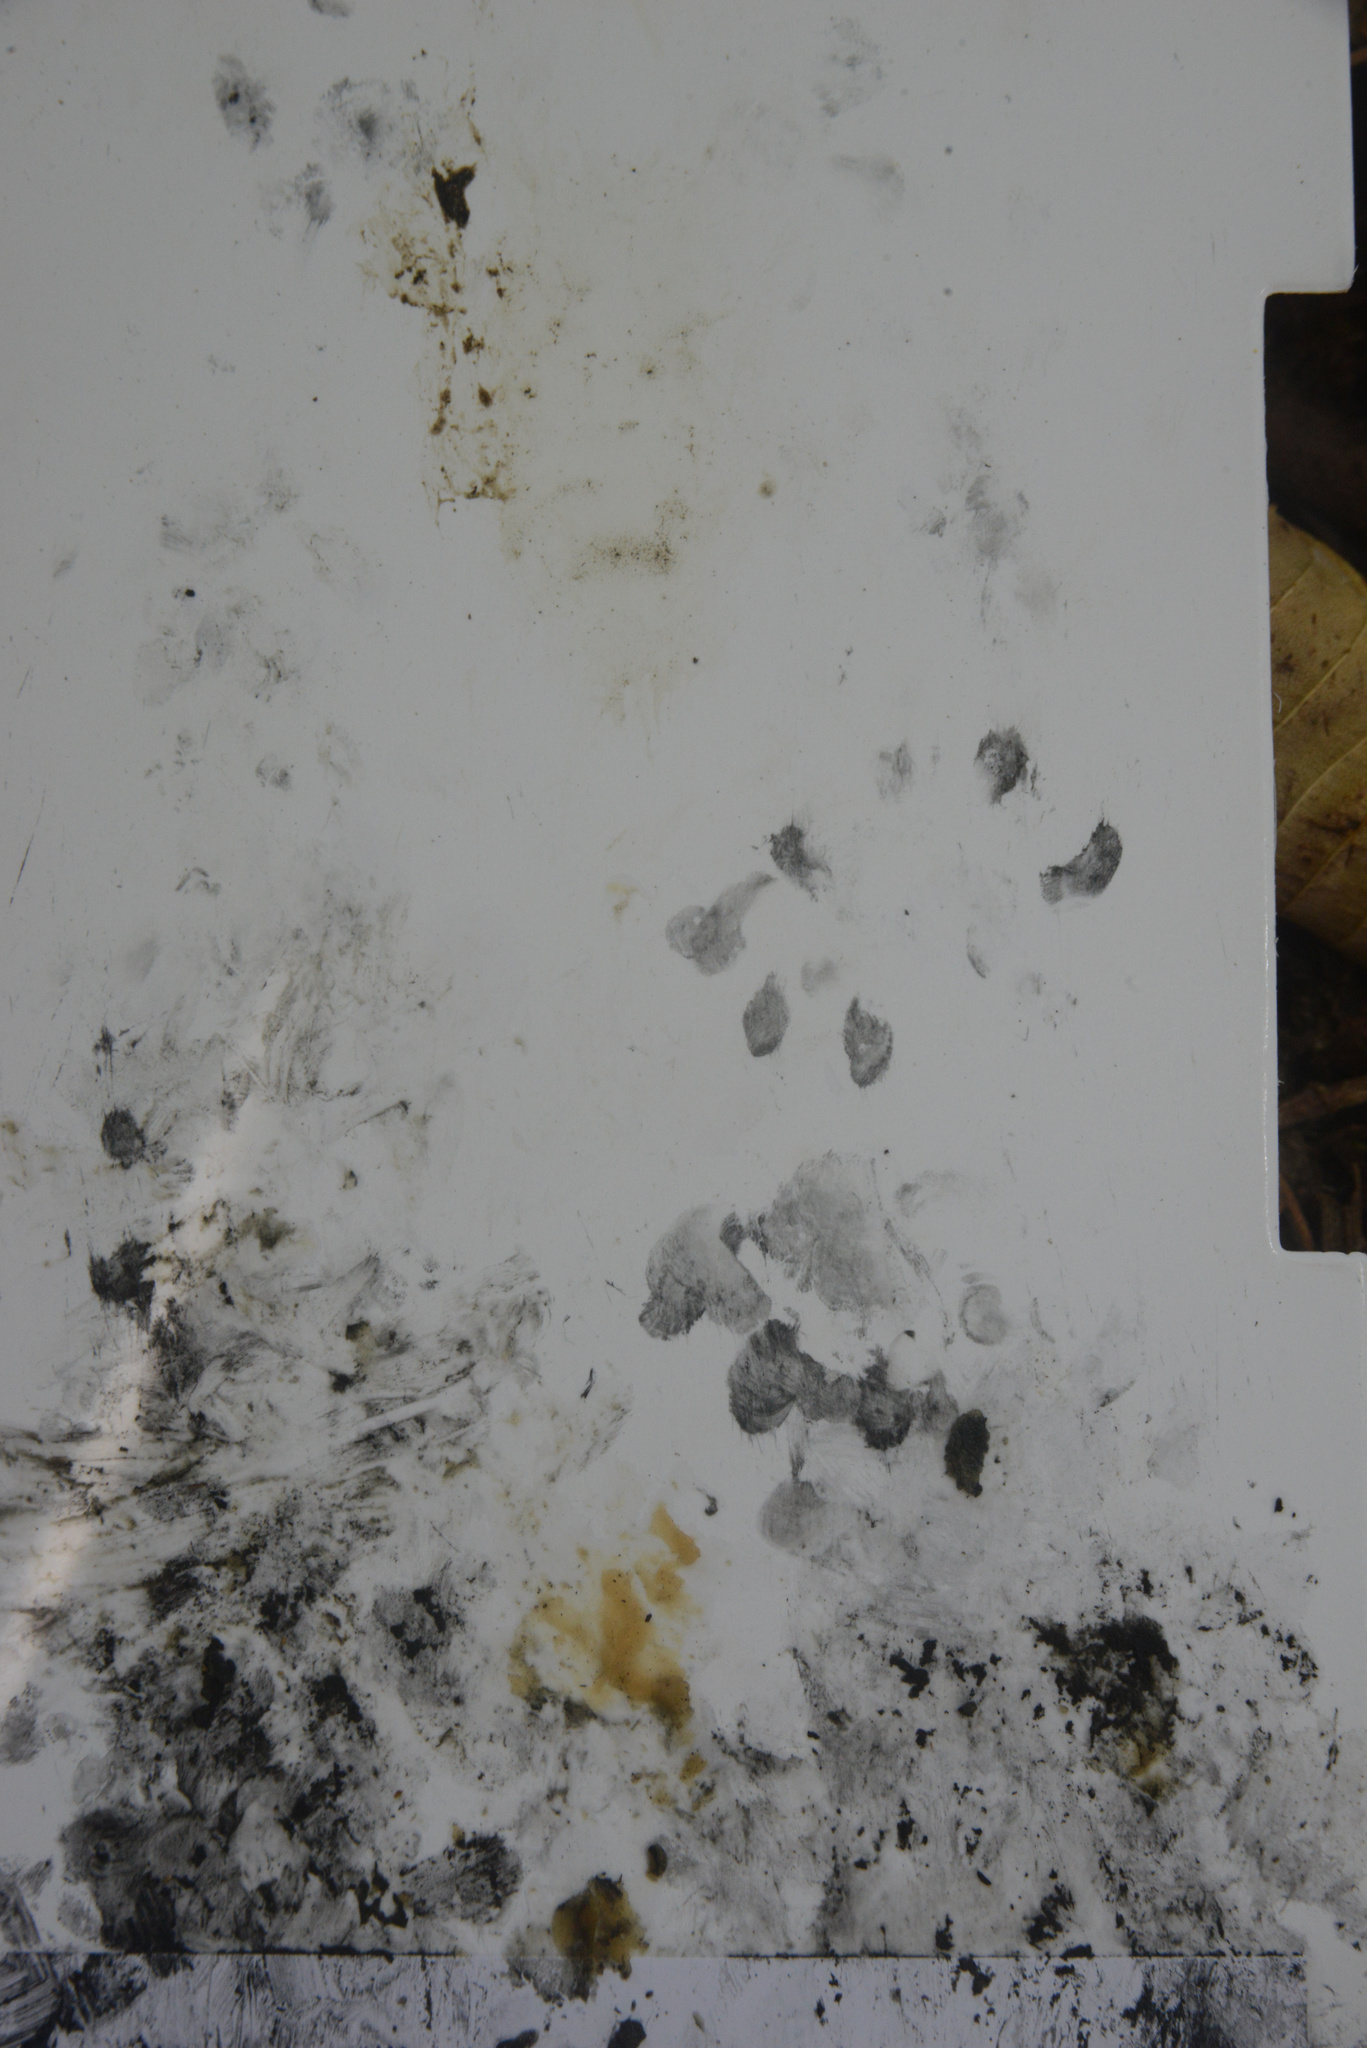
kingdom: Animalia
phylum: Chordata
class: Mammalia
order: Erinaceomorpha
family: Erinaceidae
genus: Erinaceus
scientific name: Erinaceus europaeus
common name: West european hedgehog
